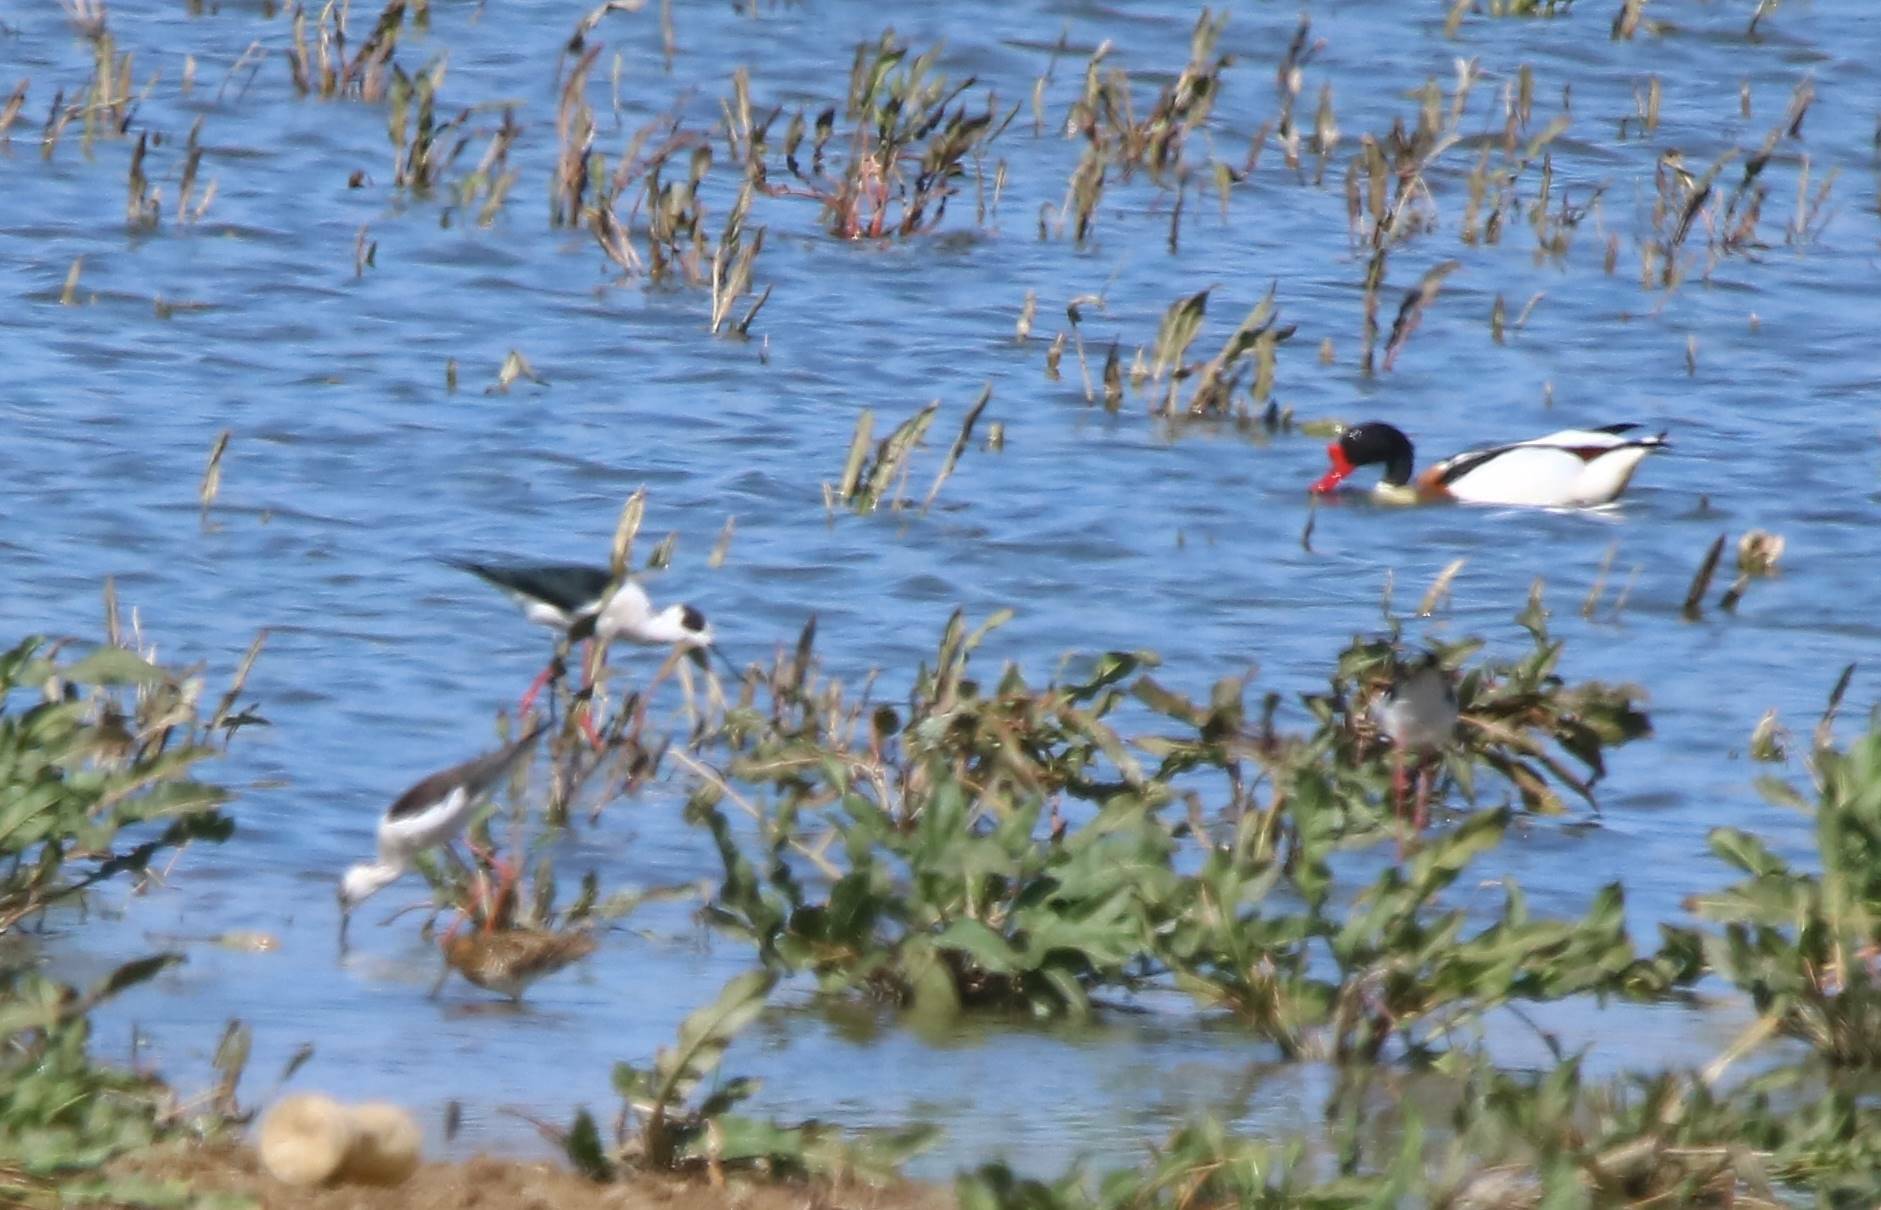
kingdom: Animalia
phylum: Chordata
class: Aves
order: Anseriformes
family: Anatidae
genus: Tadorna
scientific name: Tadorna tadorna
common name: Common shelduck
